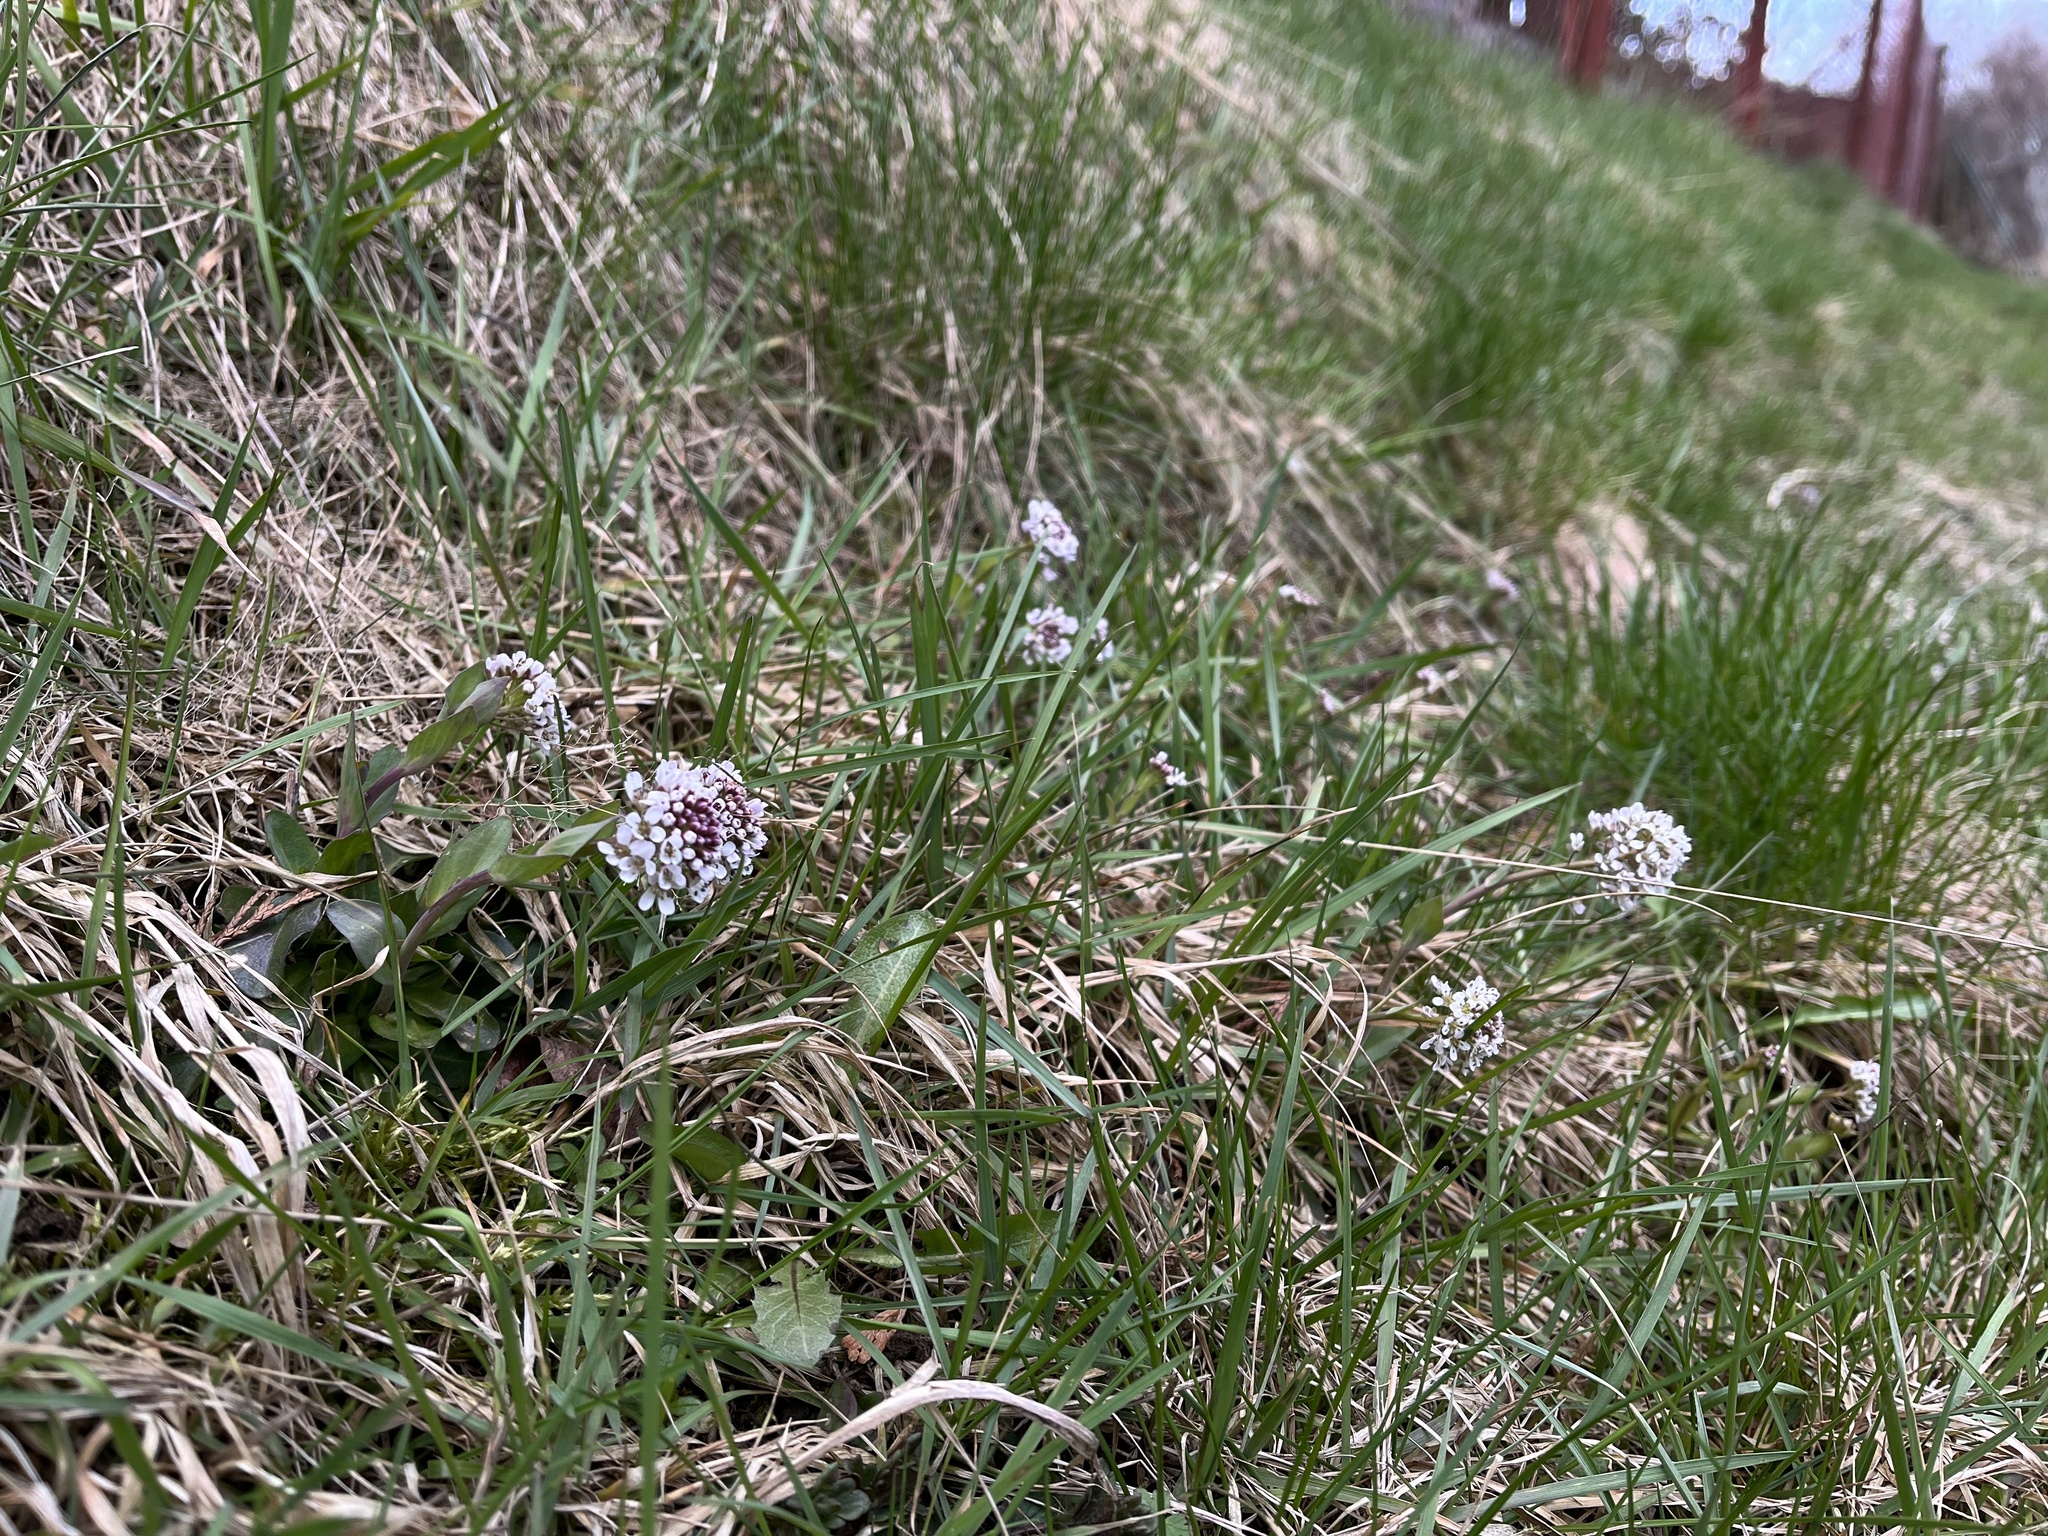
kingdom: Plantae
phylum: Tracheophyta
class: Magnoliopsida
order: Brassicales
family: Brassicaceae
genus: Noccaea
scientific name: Noccaea caerulescens
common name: Alpine pennycress
